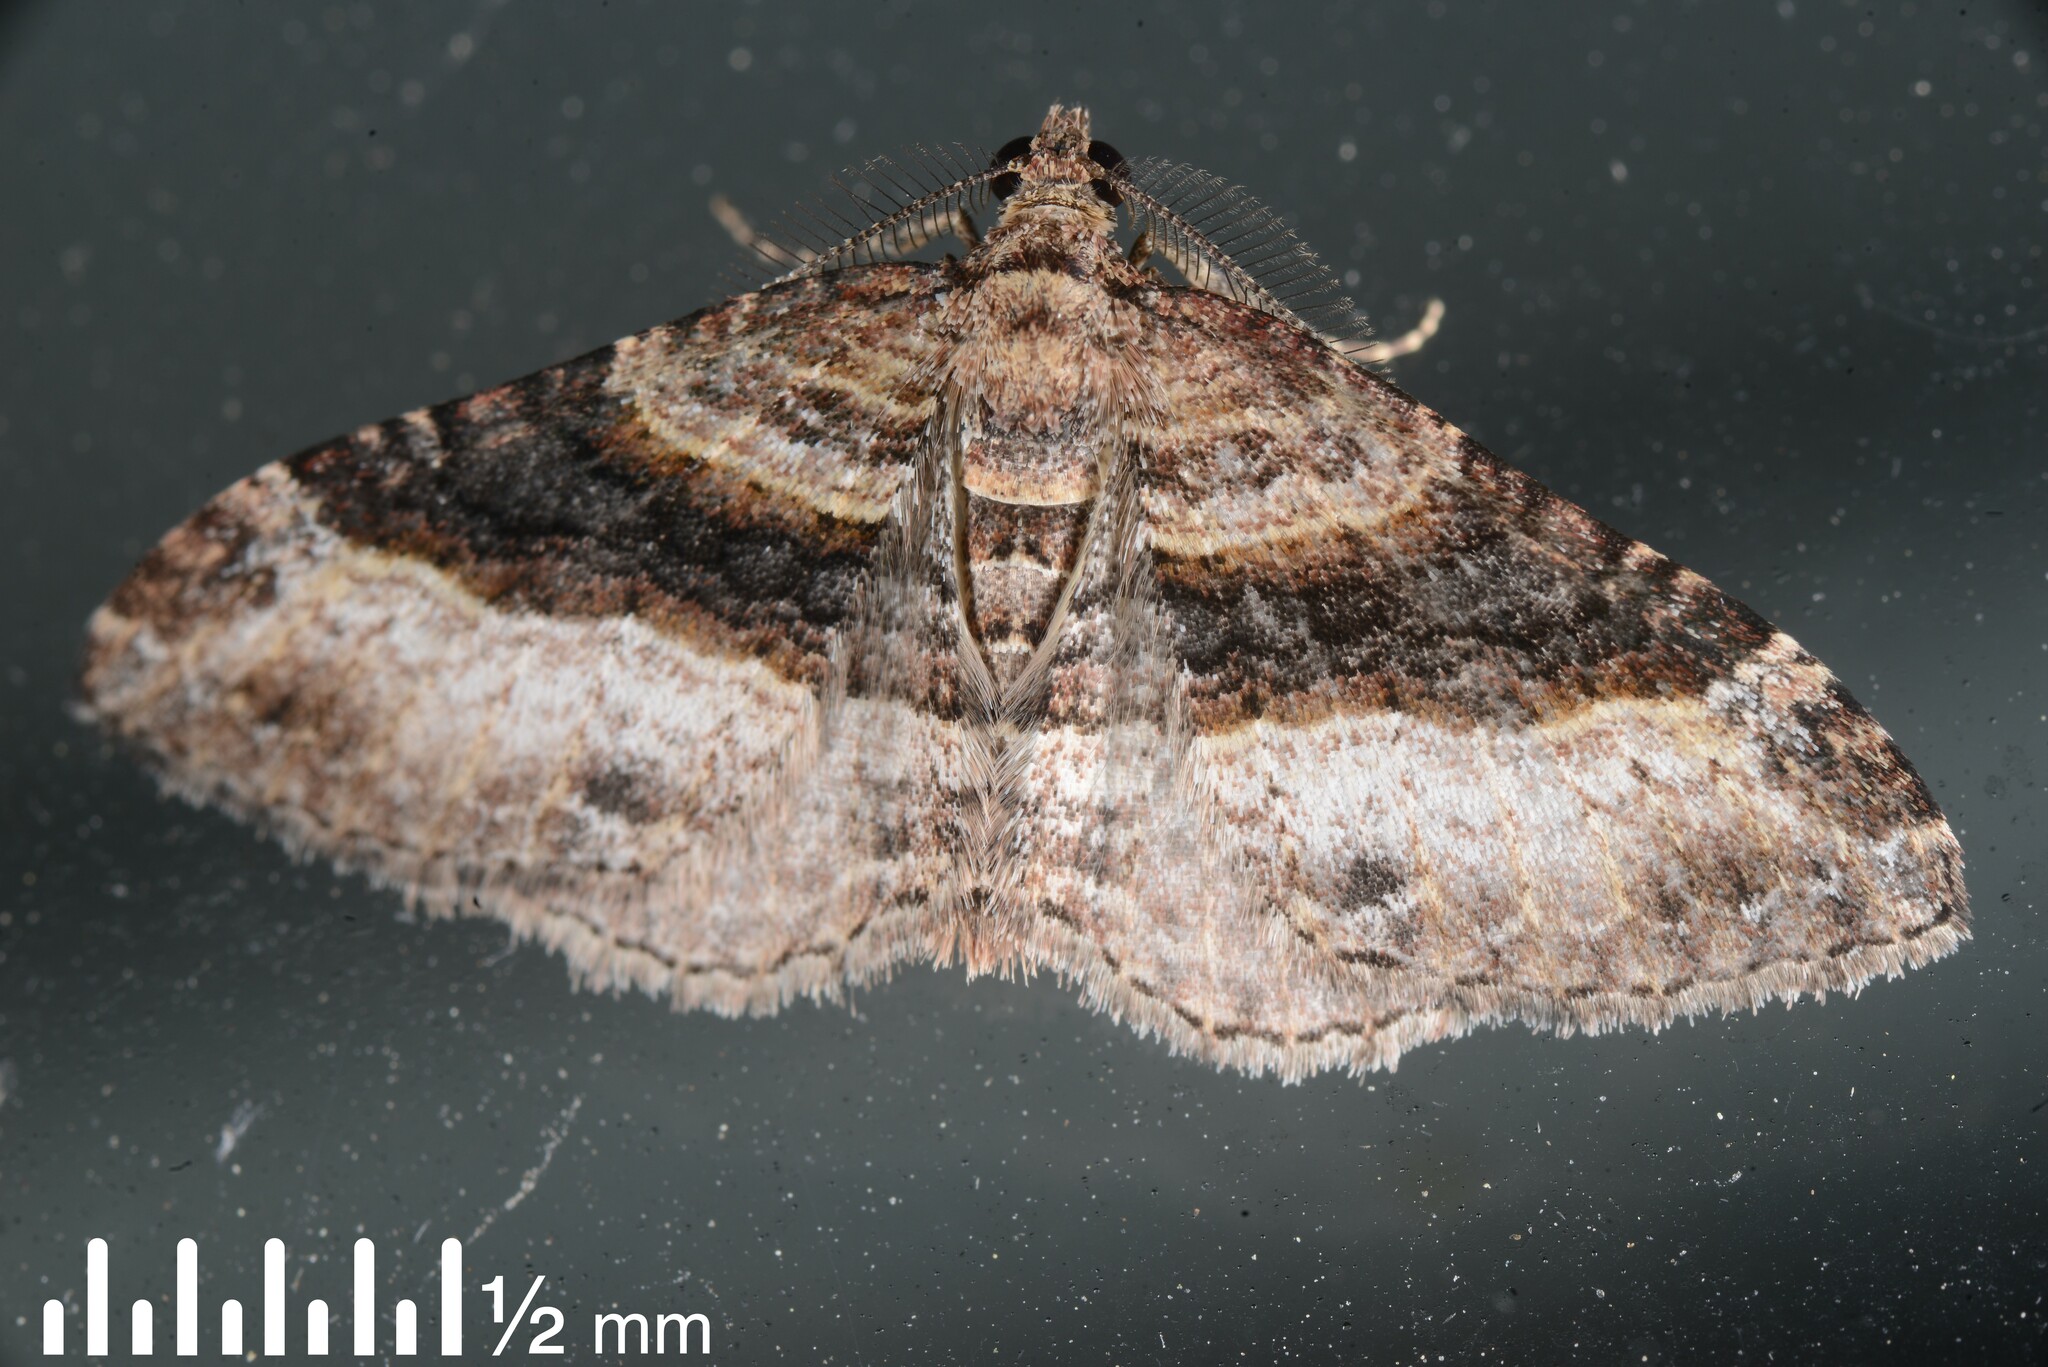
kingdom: Animalia
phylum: Arthropoda
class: Insecta
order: Lepidoptera
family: Geometridae
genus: Epyaxa
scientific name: Epyaxa lucidata
